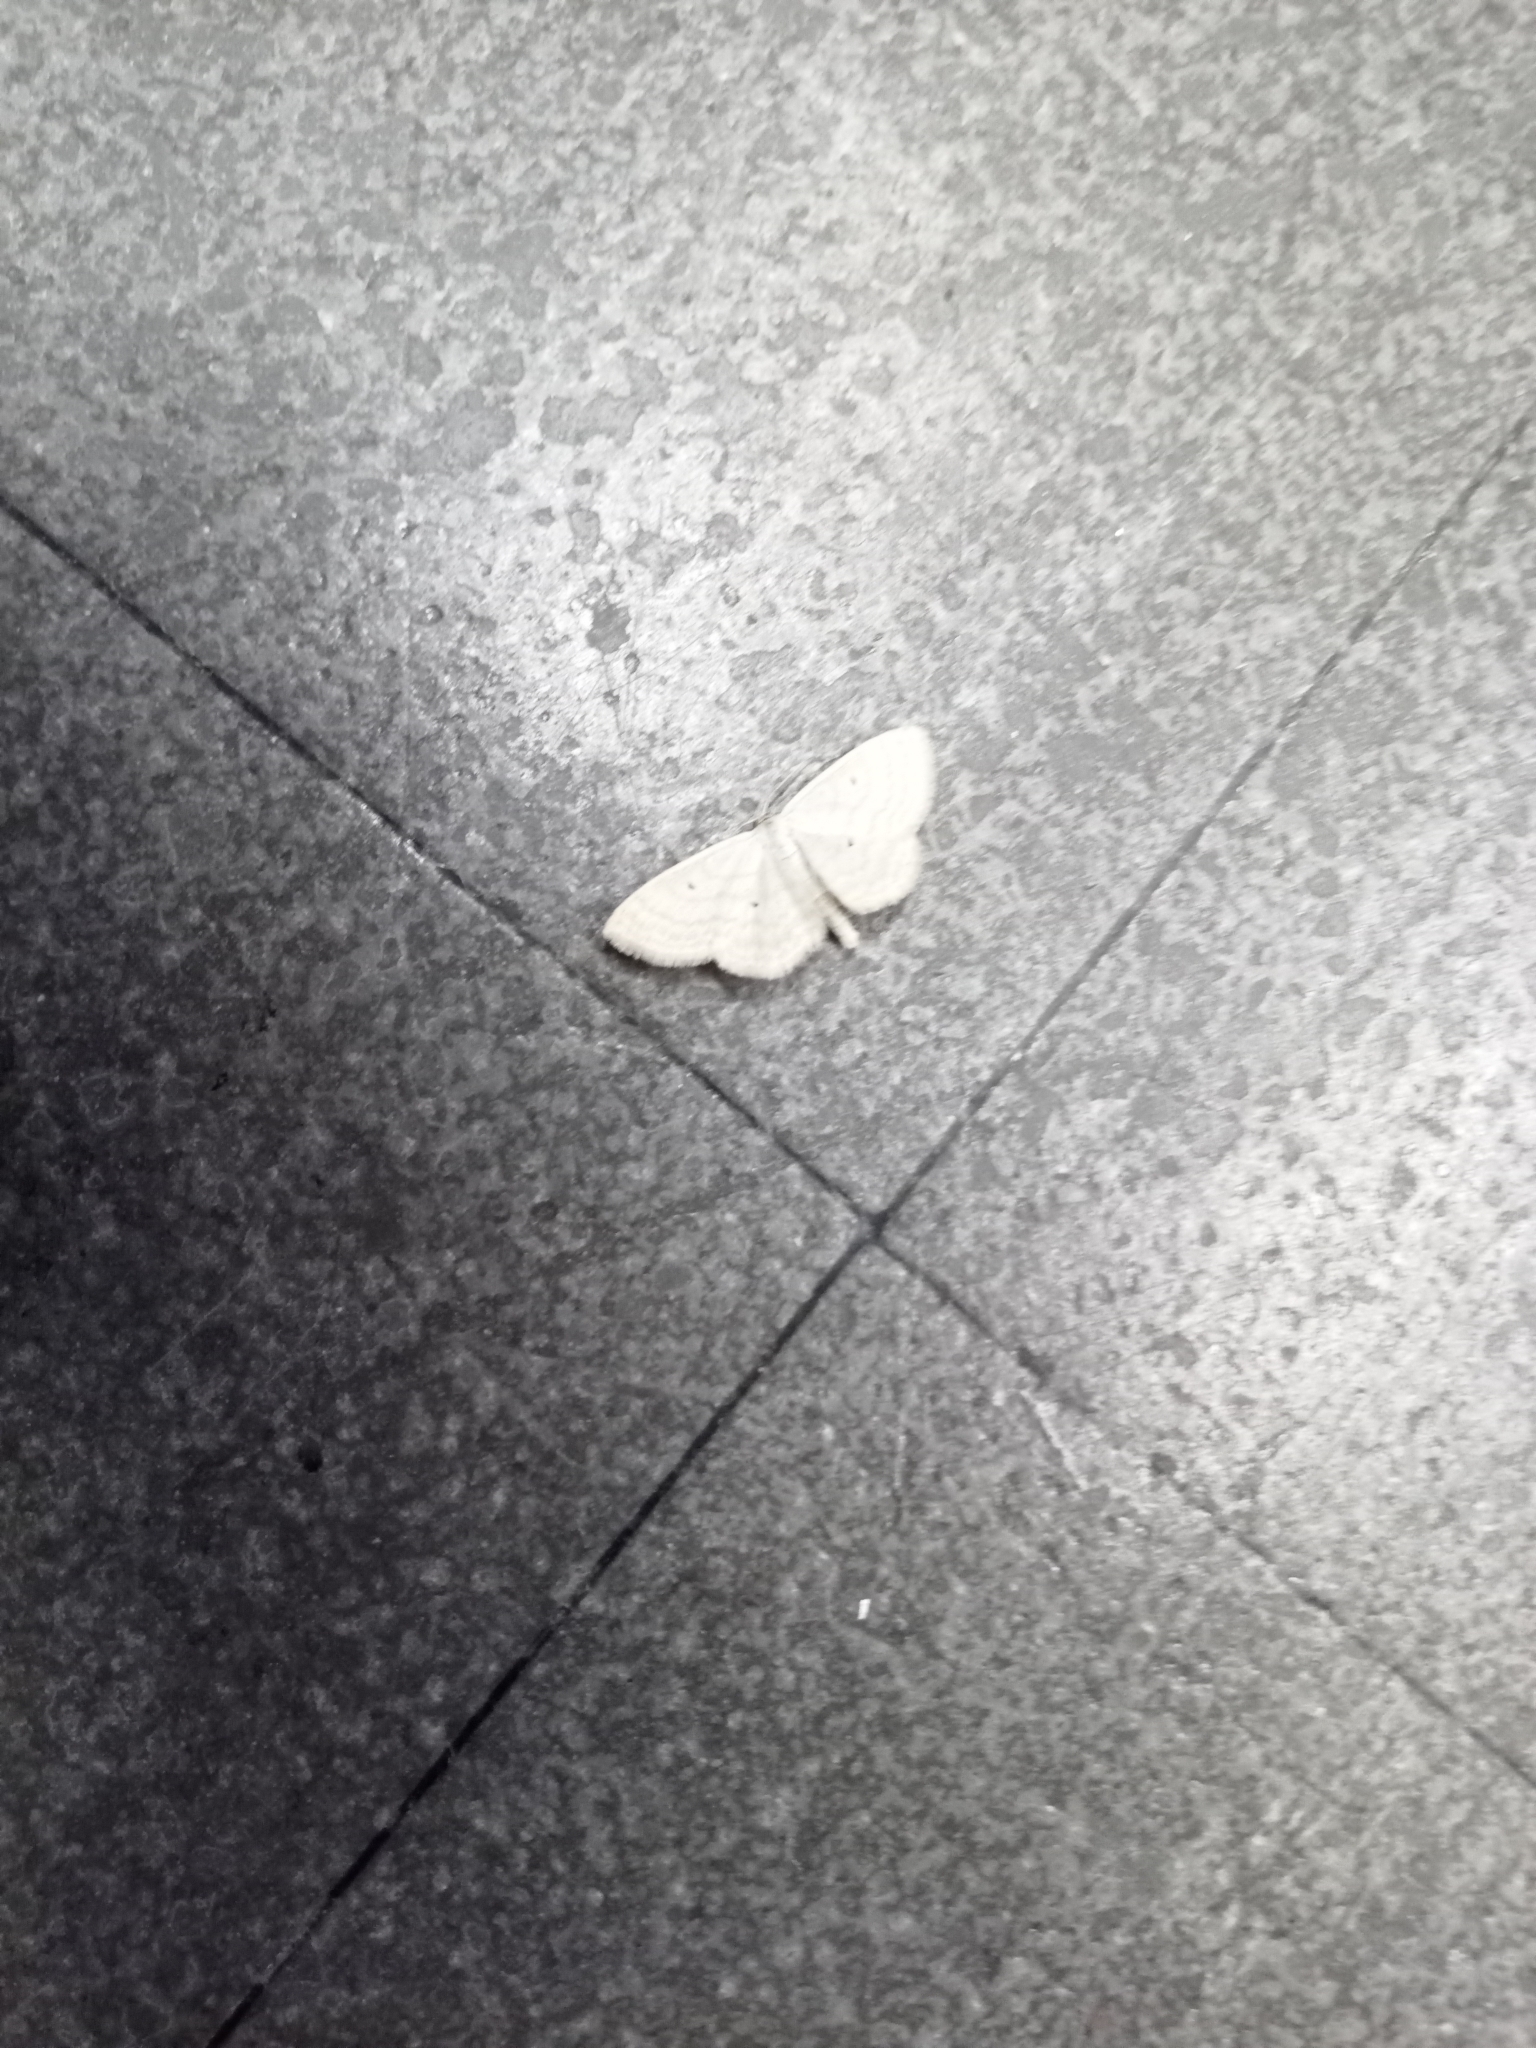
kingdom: Animalia
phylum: Arthropoda
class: Insecta
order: Lepidoptera
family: Geometridae
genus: Scopula
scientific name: Scopula immutata
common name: Lesser cream wave
